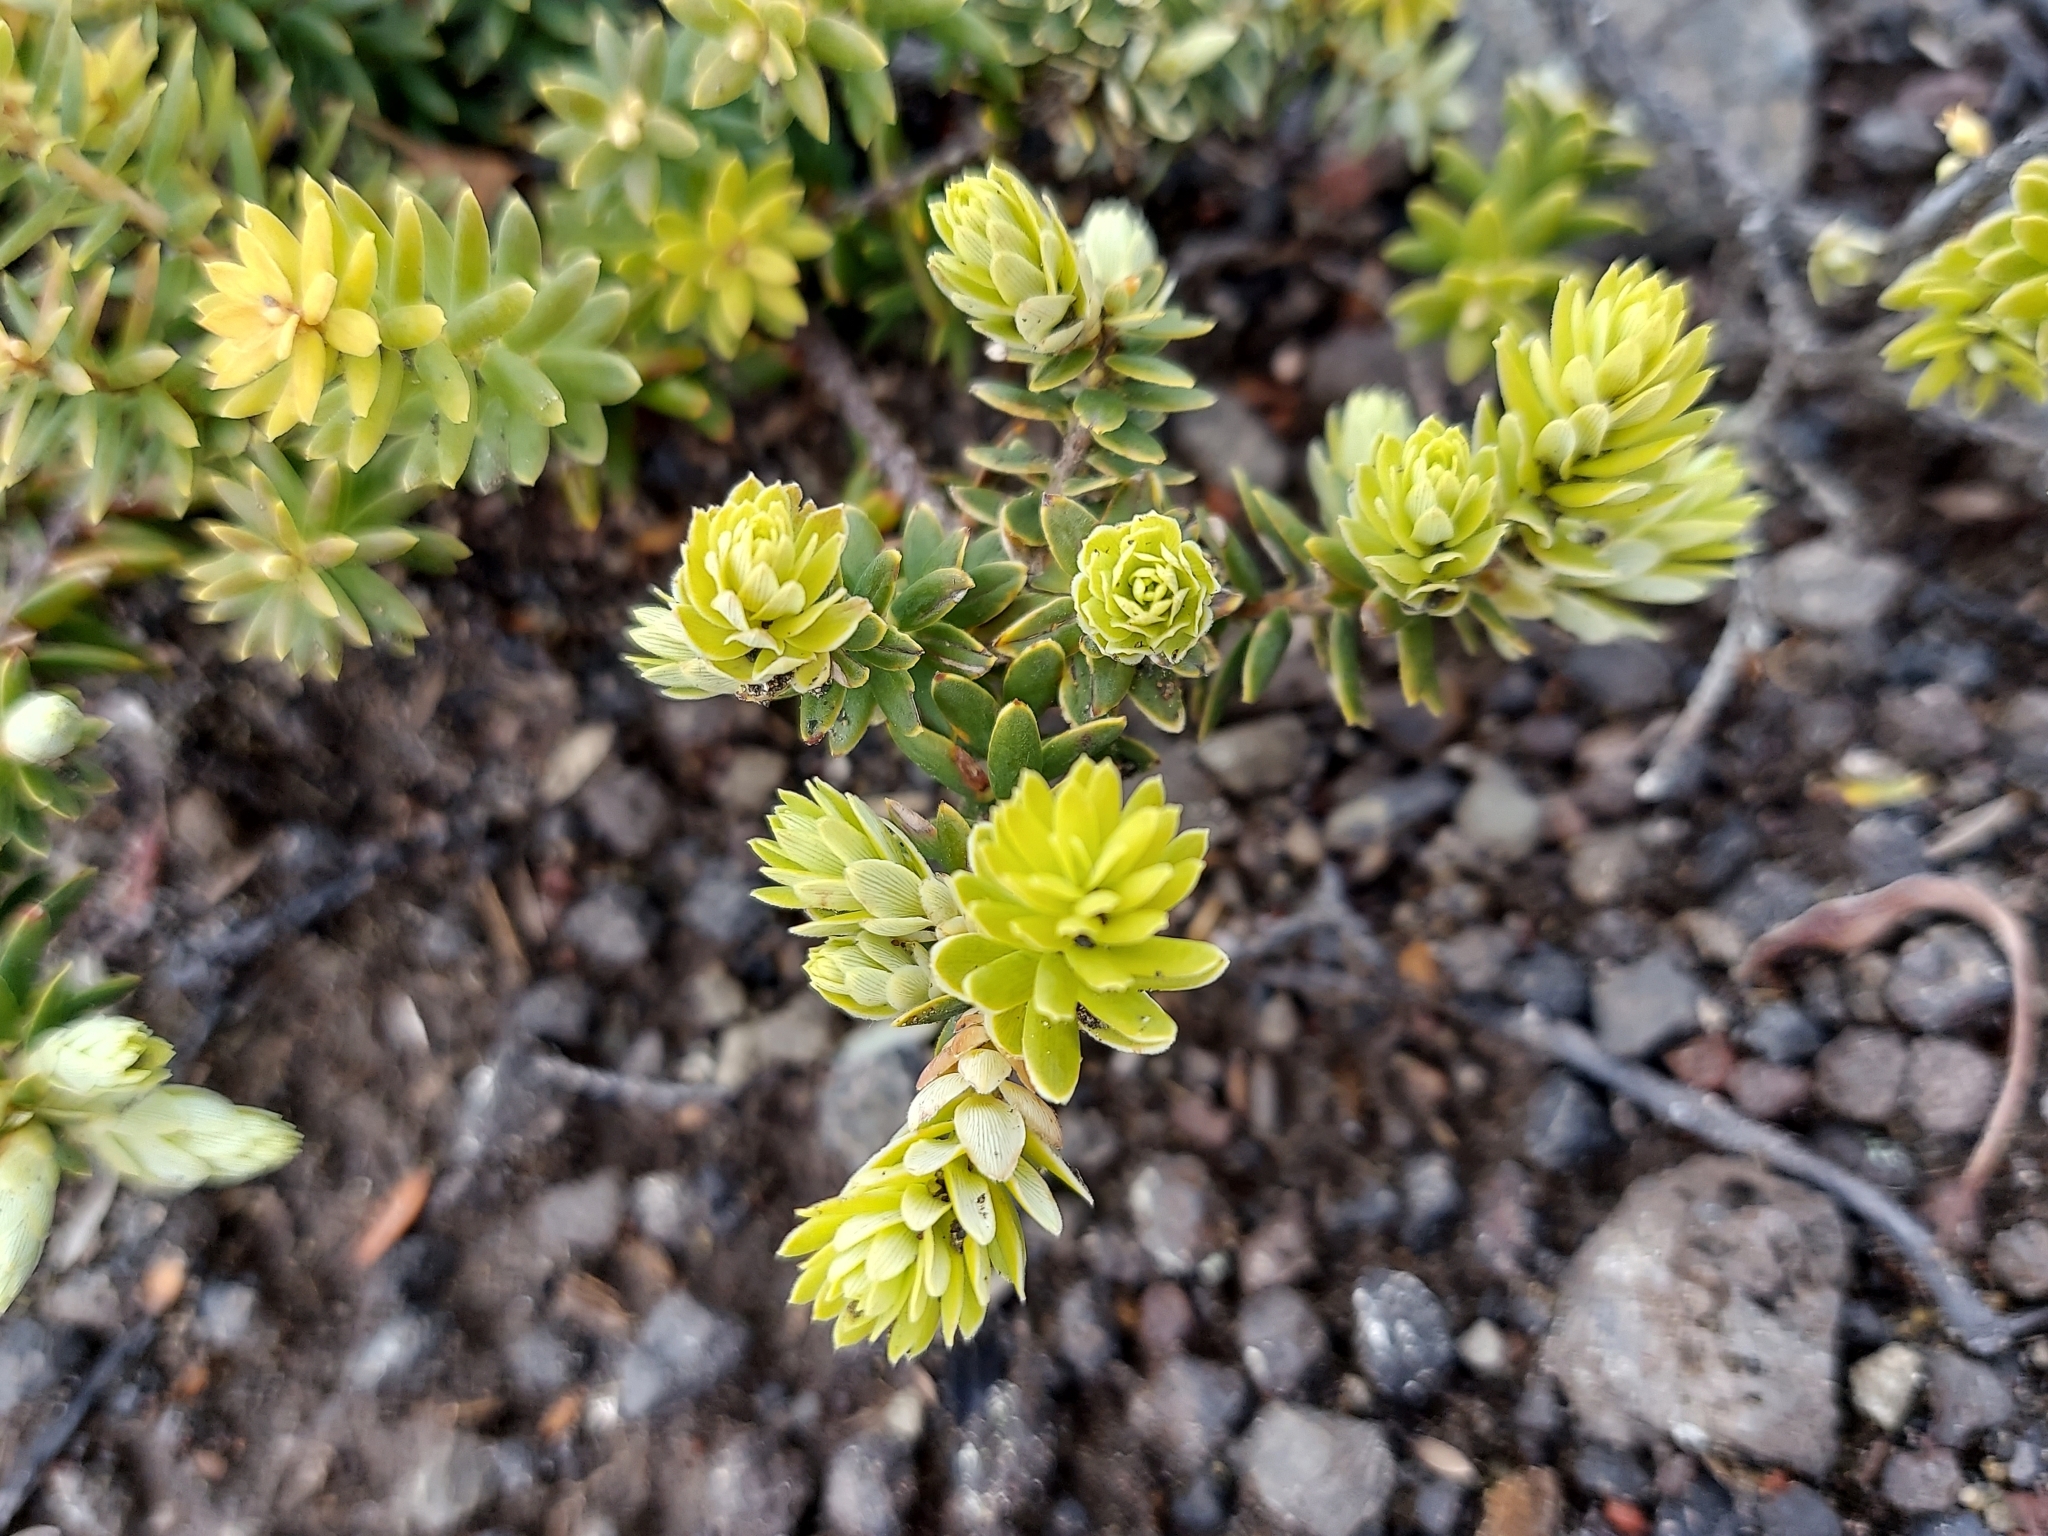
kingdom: Plantae
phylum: Tracheophyta
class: Magnoliopsida
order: Ericales
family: Ericaceae
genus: Leptecophylla
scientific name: Leptecophylla tameiameiae
